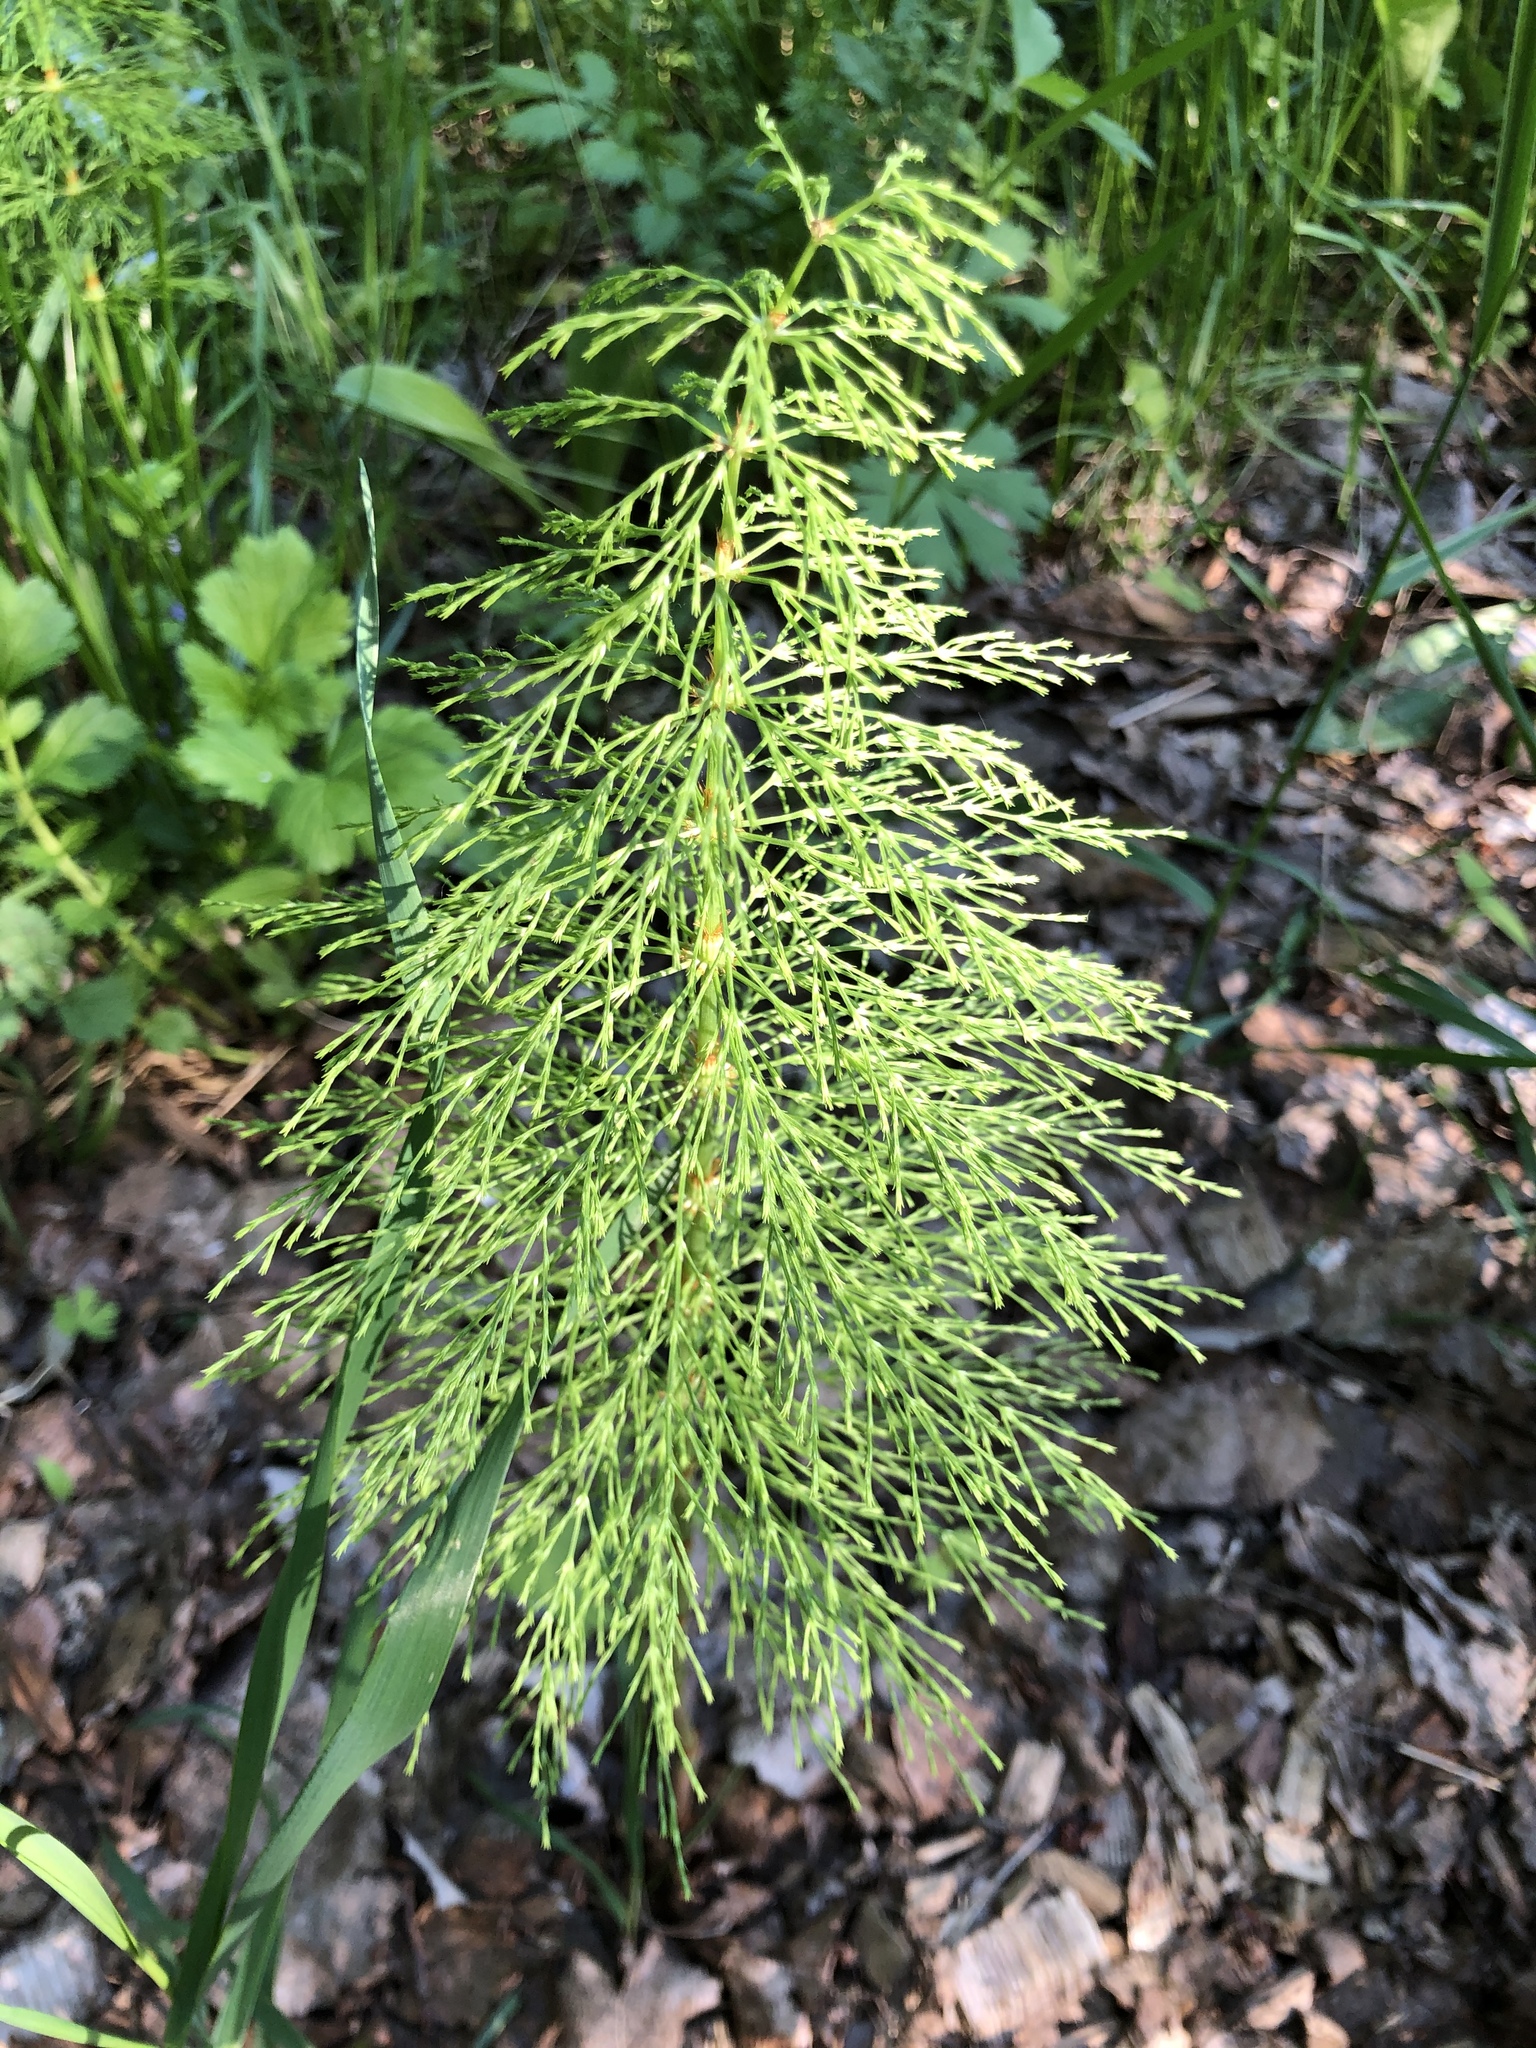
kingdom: Plantae
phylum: Tracheophyta
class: Polypodiopsida
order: Equisetales
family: Equisetaceae
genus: Equisetum
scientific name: Equisetum sylvaticum
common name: Wood horsetail
